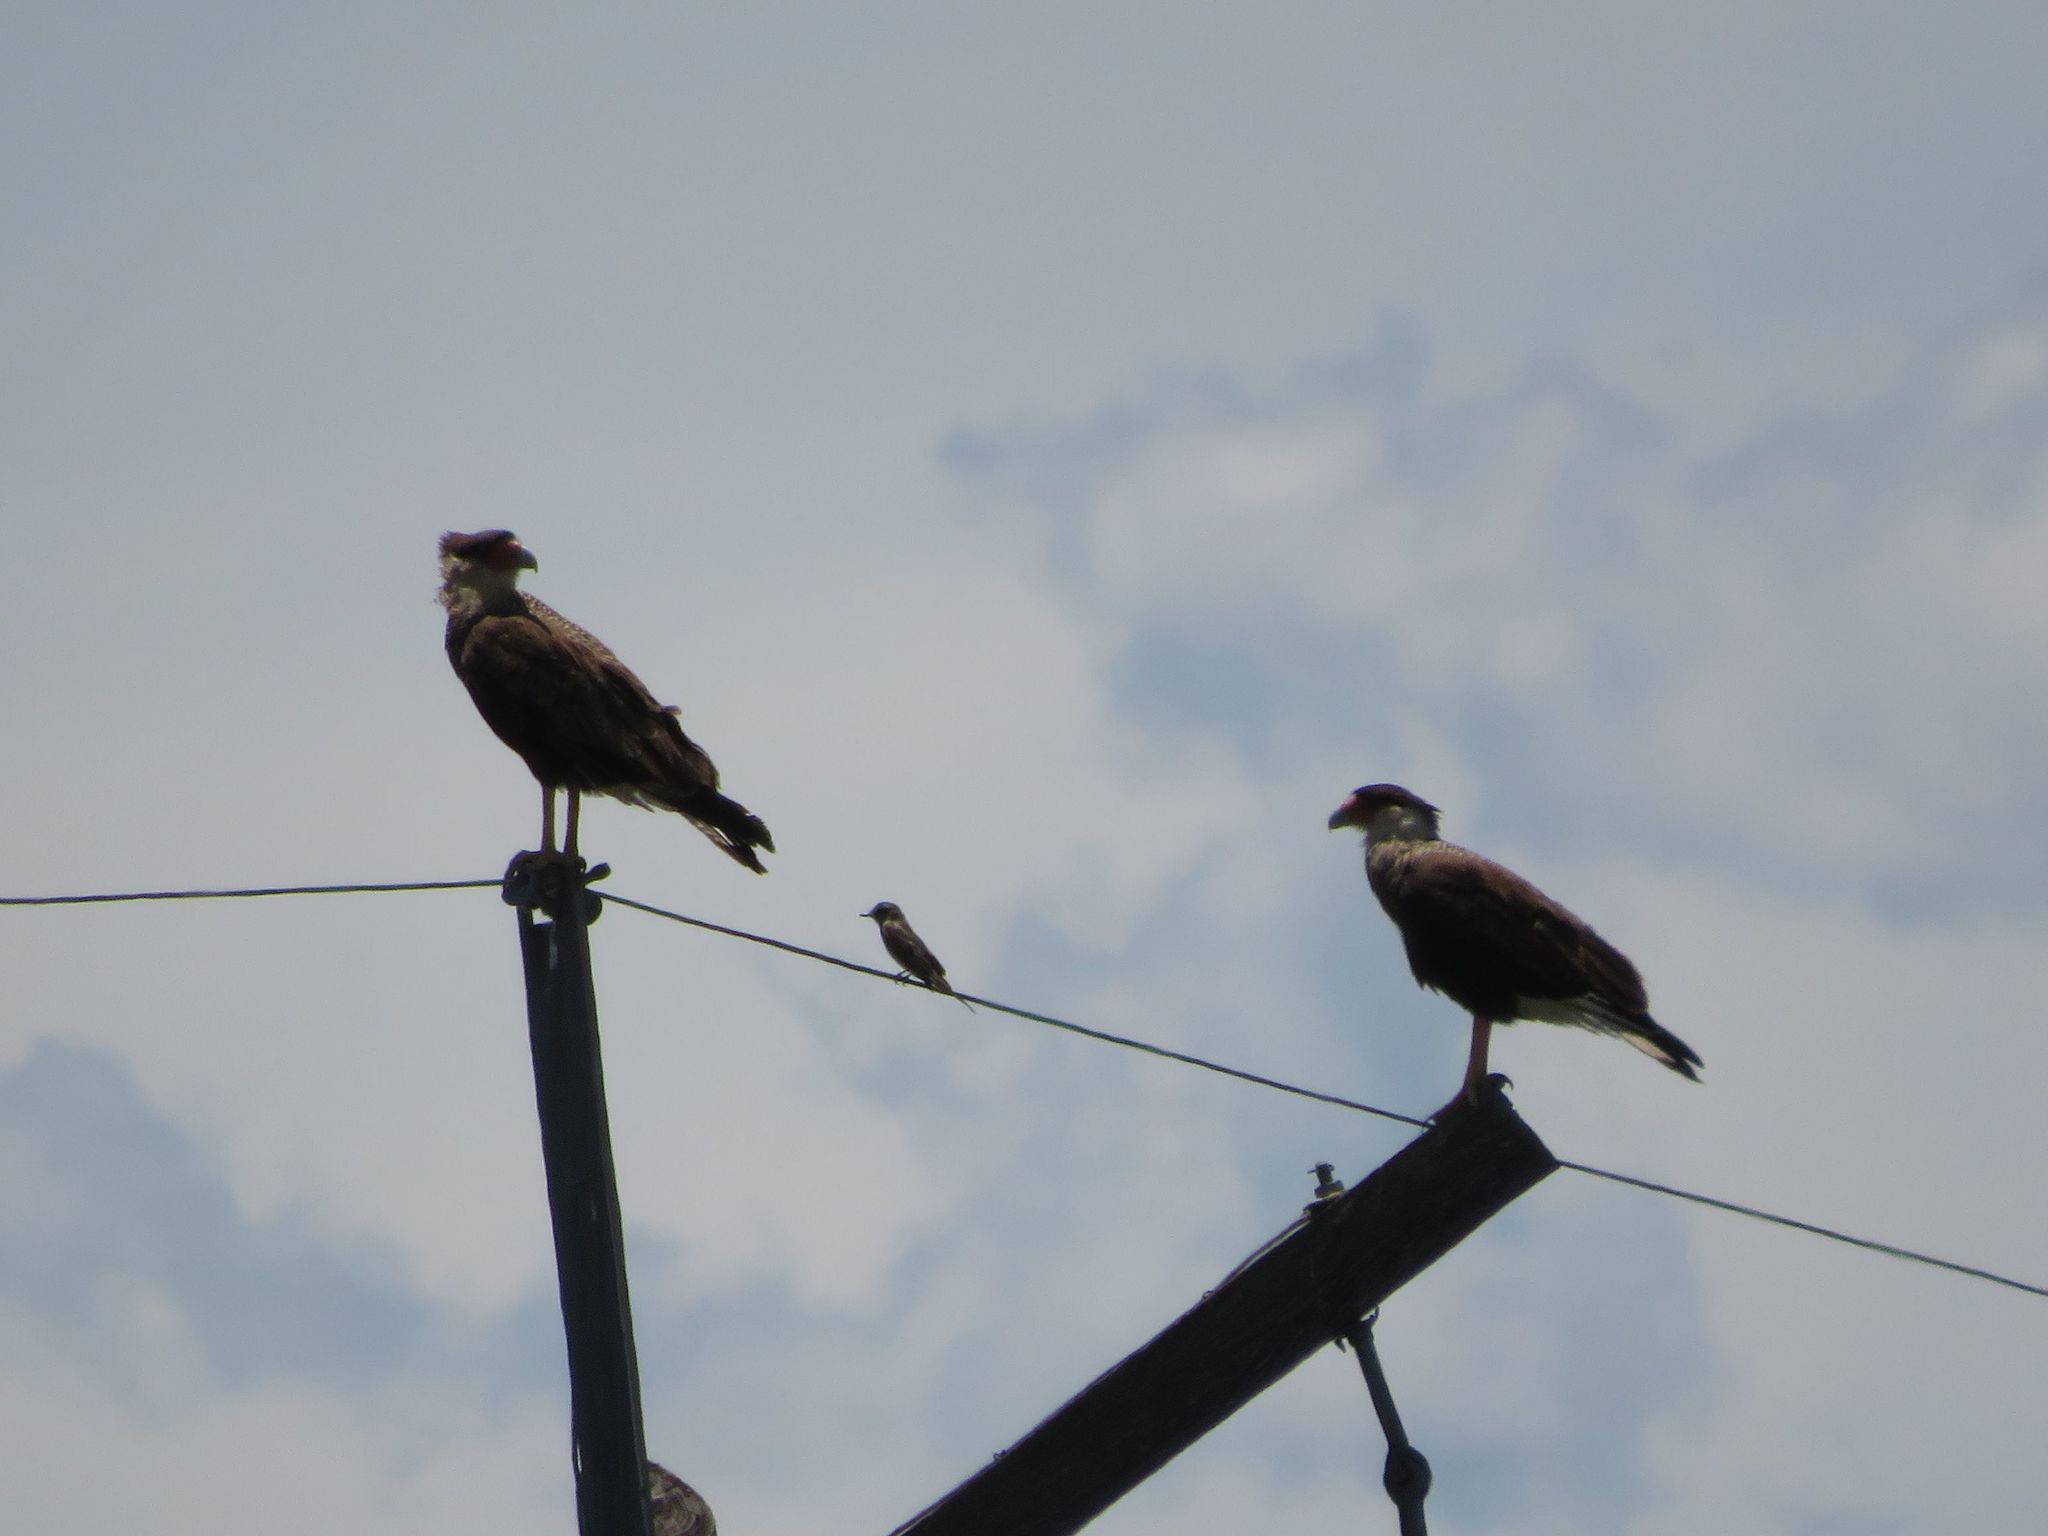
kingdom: Animalia
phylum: Chordata
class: Aves
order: Falconiformes
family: Falconidae
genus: Caracara
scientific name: Caracara plancus
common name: Southern caracara
